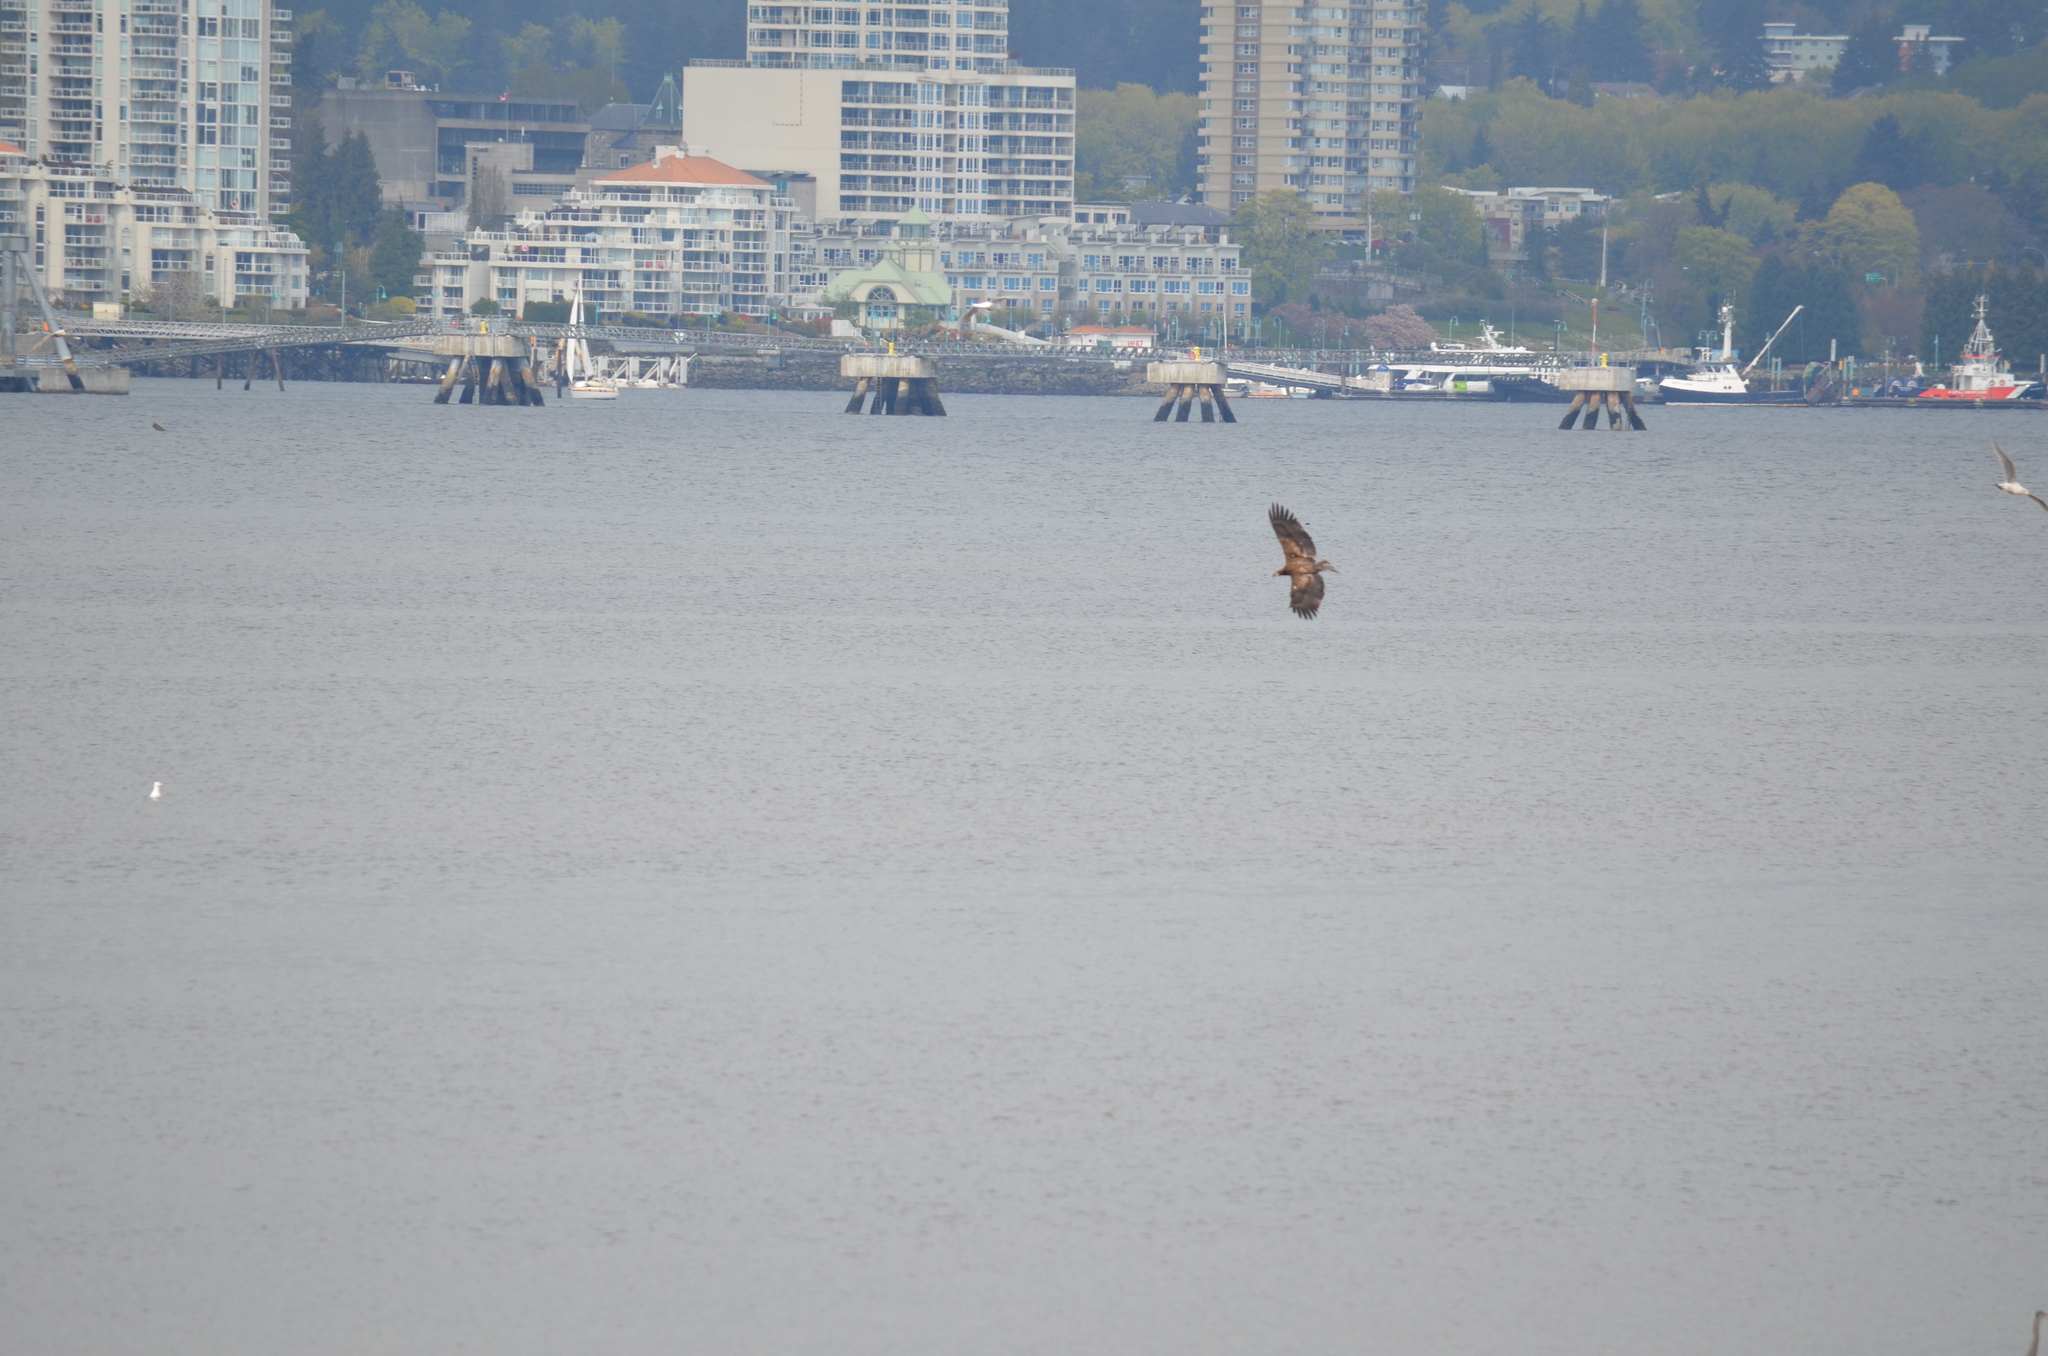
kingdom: Animalia
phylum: Chordata
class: Aves
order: Accipitriformes
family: Accipitridae
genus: Haliaeetus
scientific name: Haliaeetus leucocephalus
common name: Bald eagle
